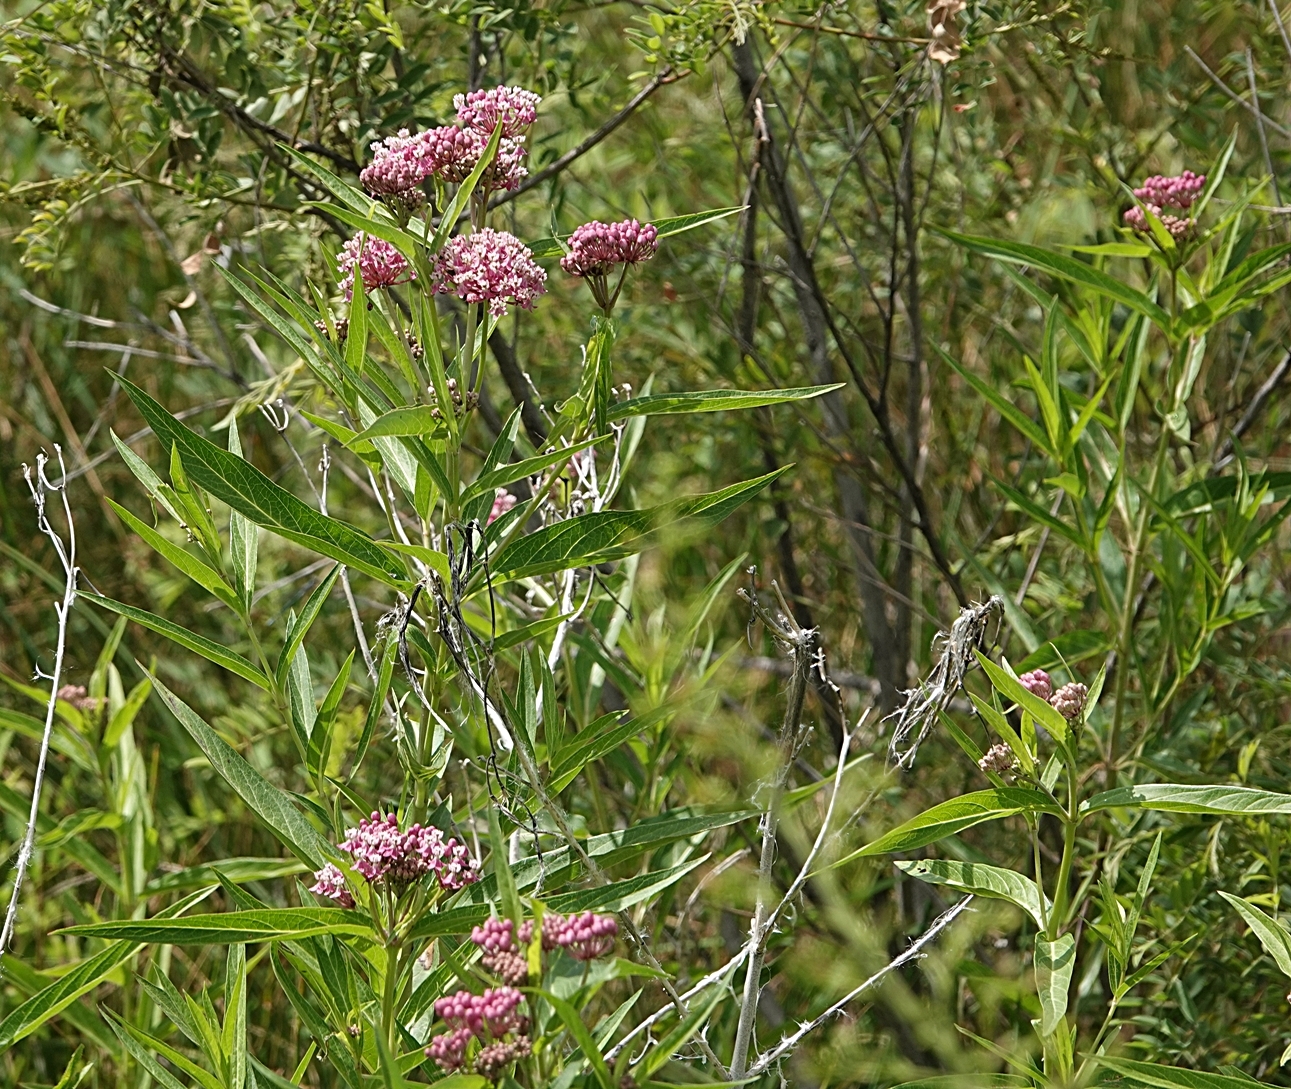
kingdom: Plantae
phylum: Tracheophyta
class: Magnoliopsida
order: Gentianales
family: Apocynaceae
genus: Asclepias
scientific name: Asclepias incarnata
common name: Swamp milkweed
